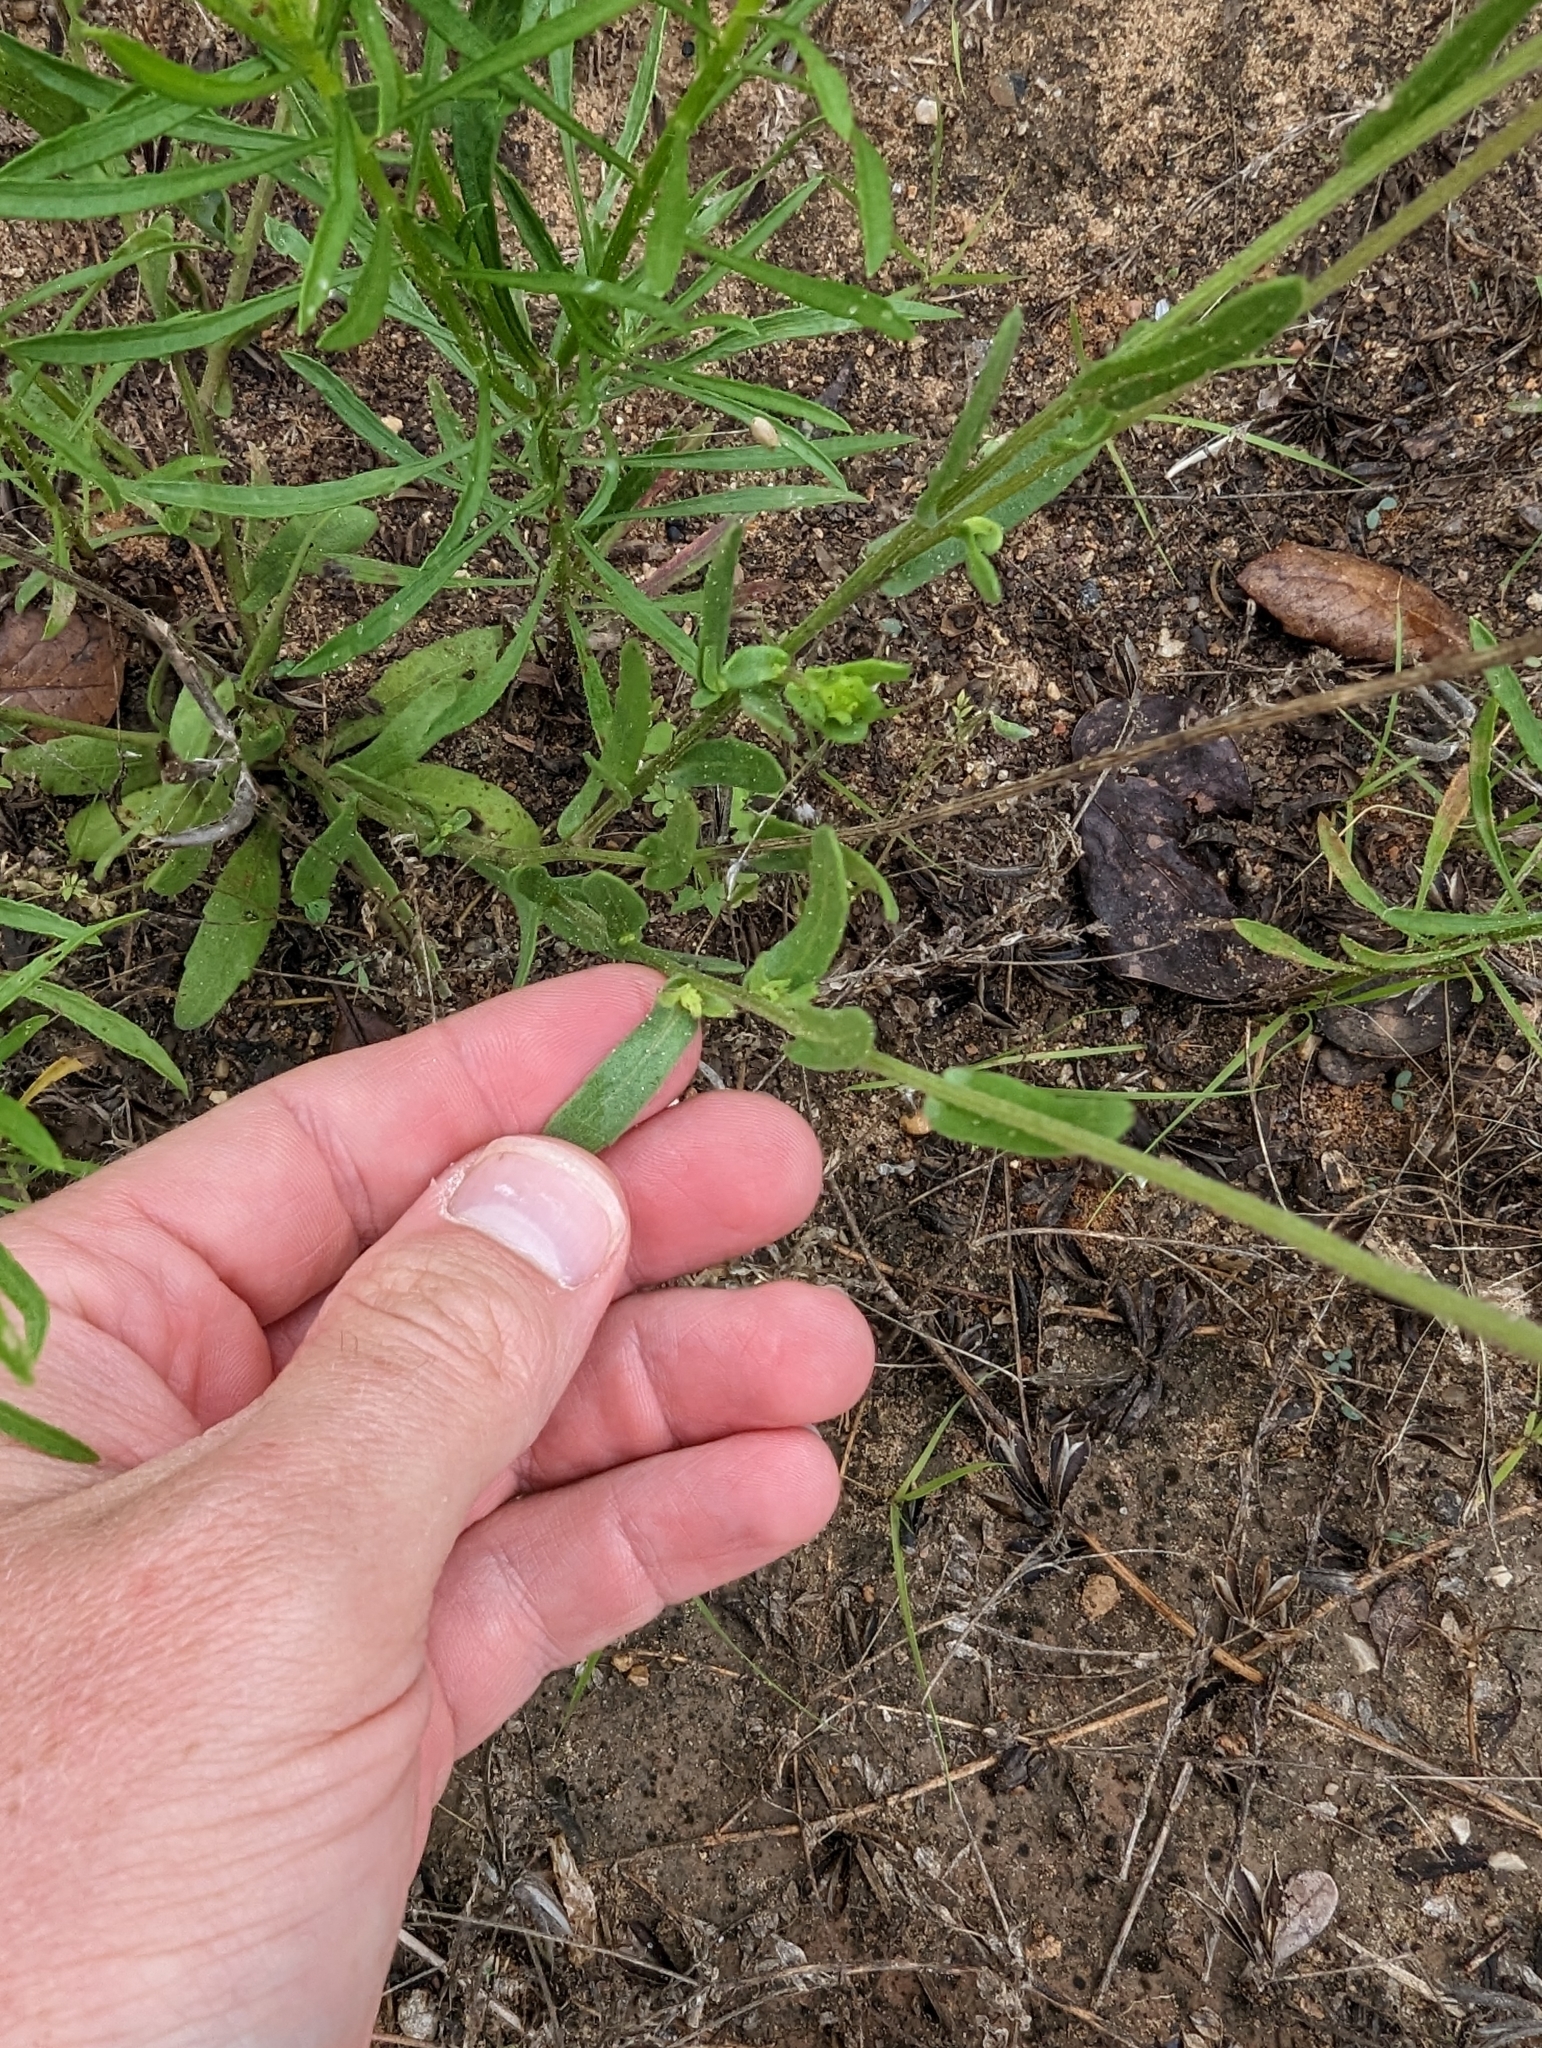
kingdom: Plantae
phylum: Tracheophyta
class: Magnoliopsida
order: Asterales
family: Asteraceae
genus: Gaillardia
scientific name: Gaillardia aestivalis
